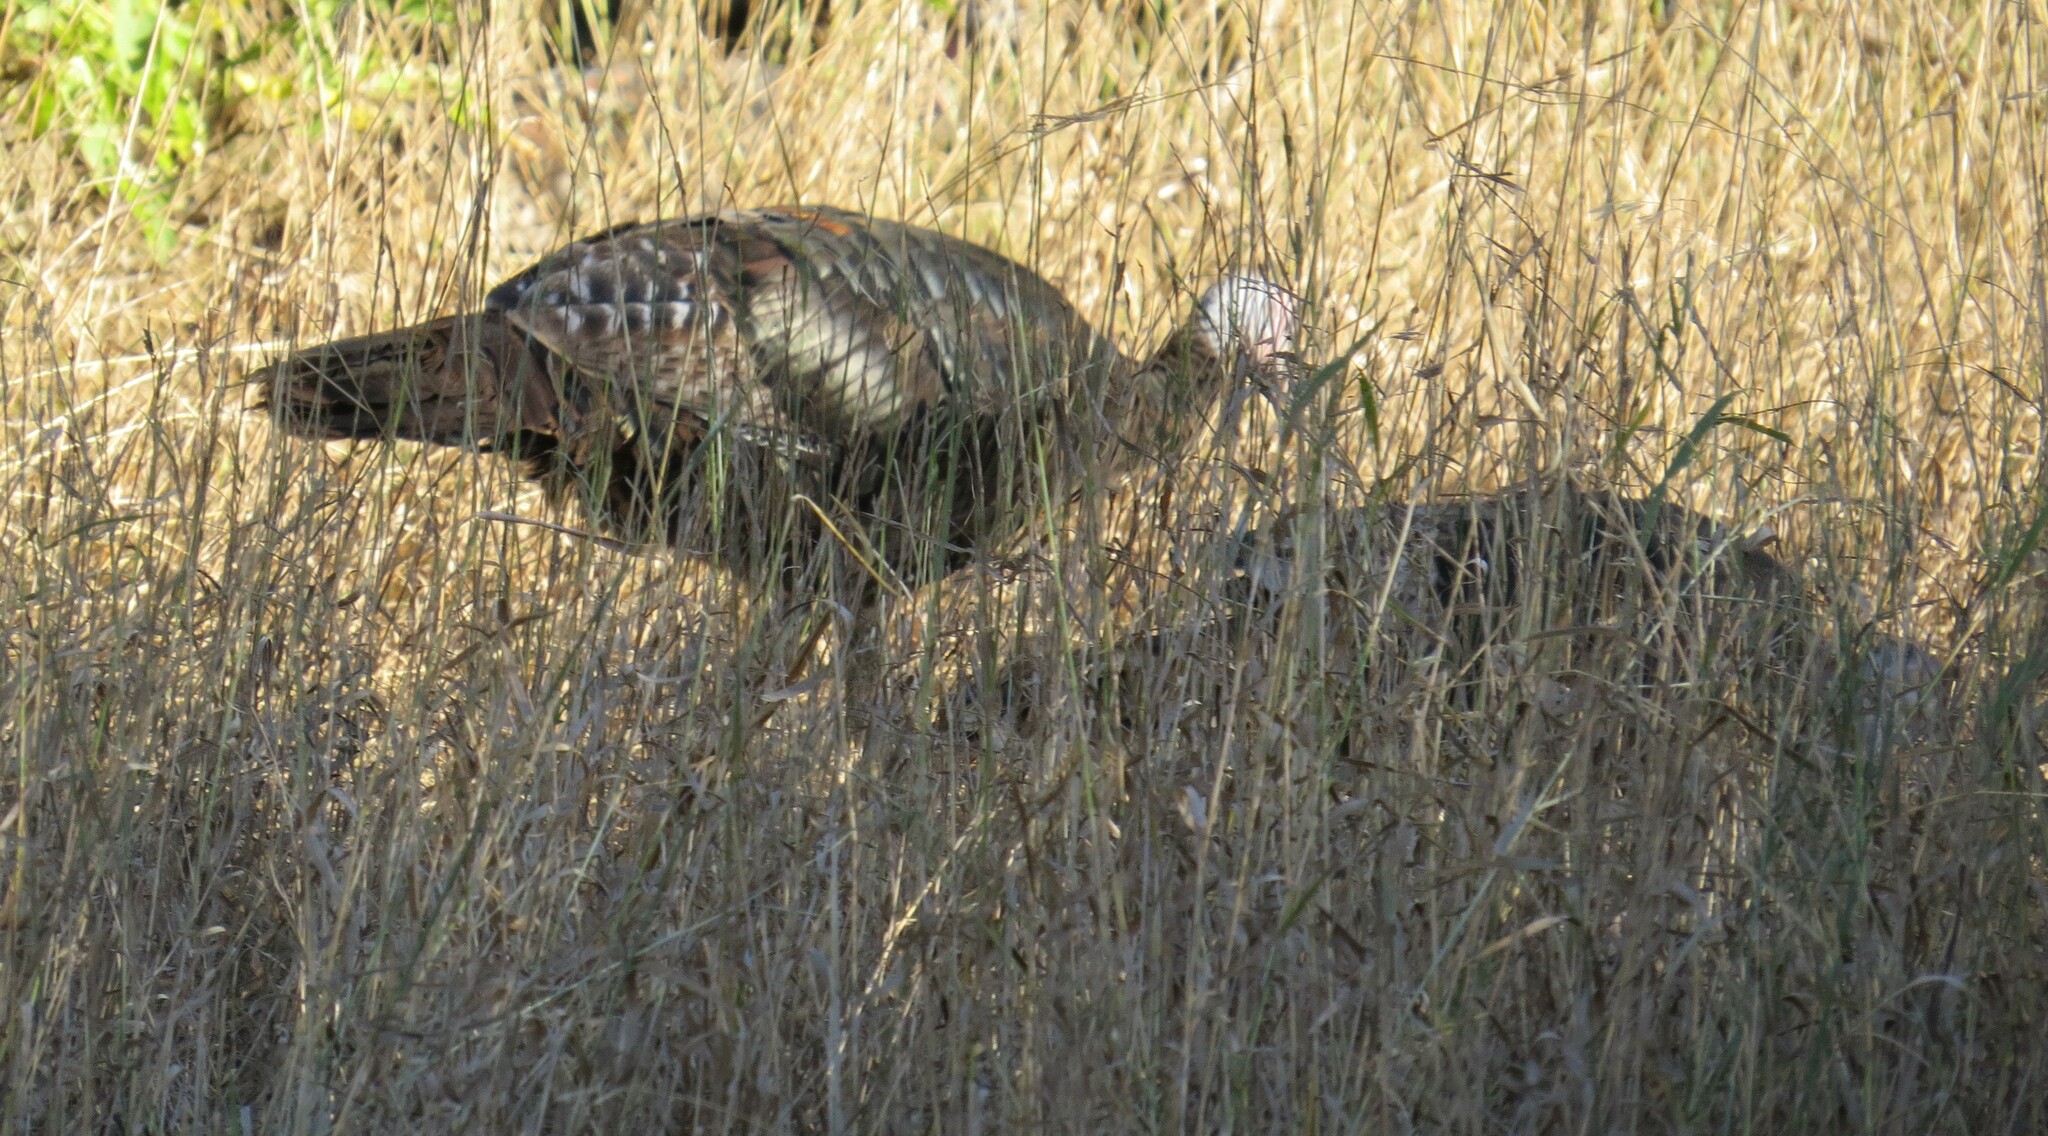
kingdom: Animalia
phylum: Chordata
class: Aves
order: Galliformes
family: Phasianidae
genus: Meleagris
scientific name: Meleagris gallopavo
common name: Wild turkey
